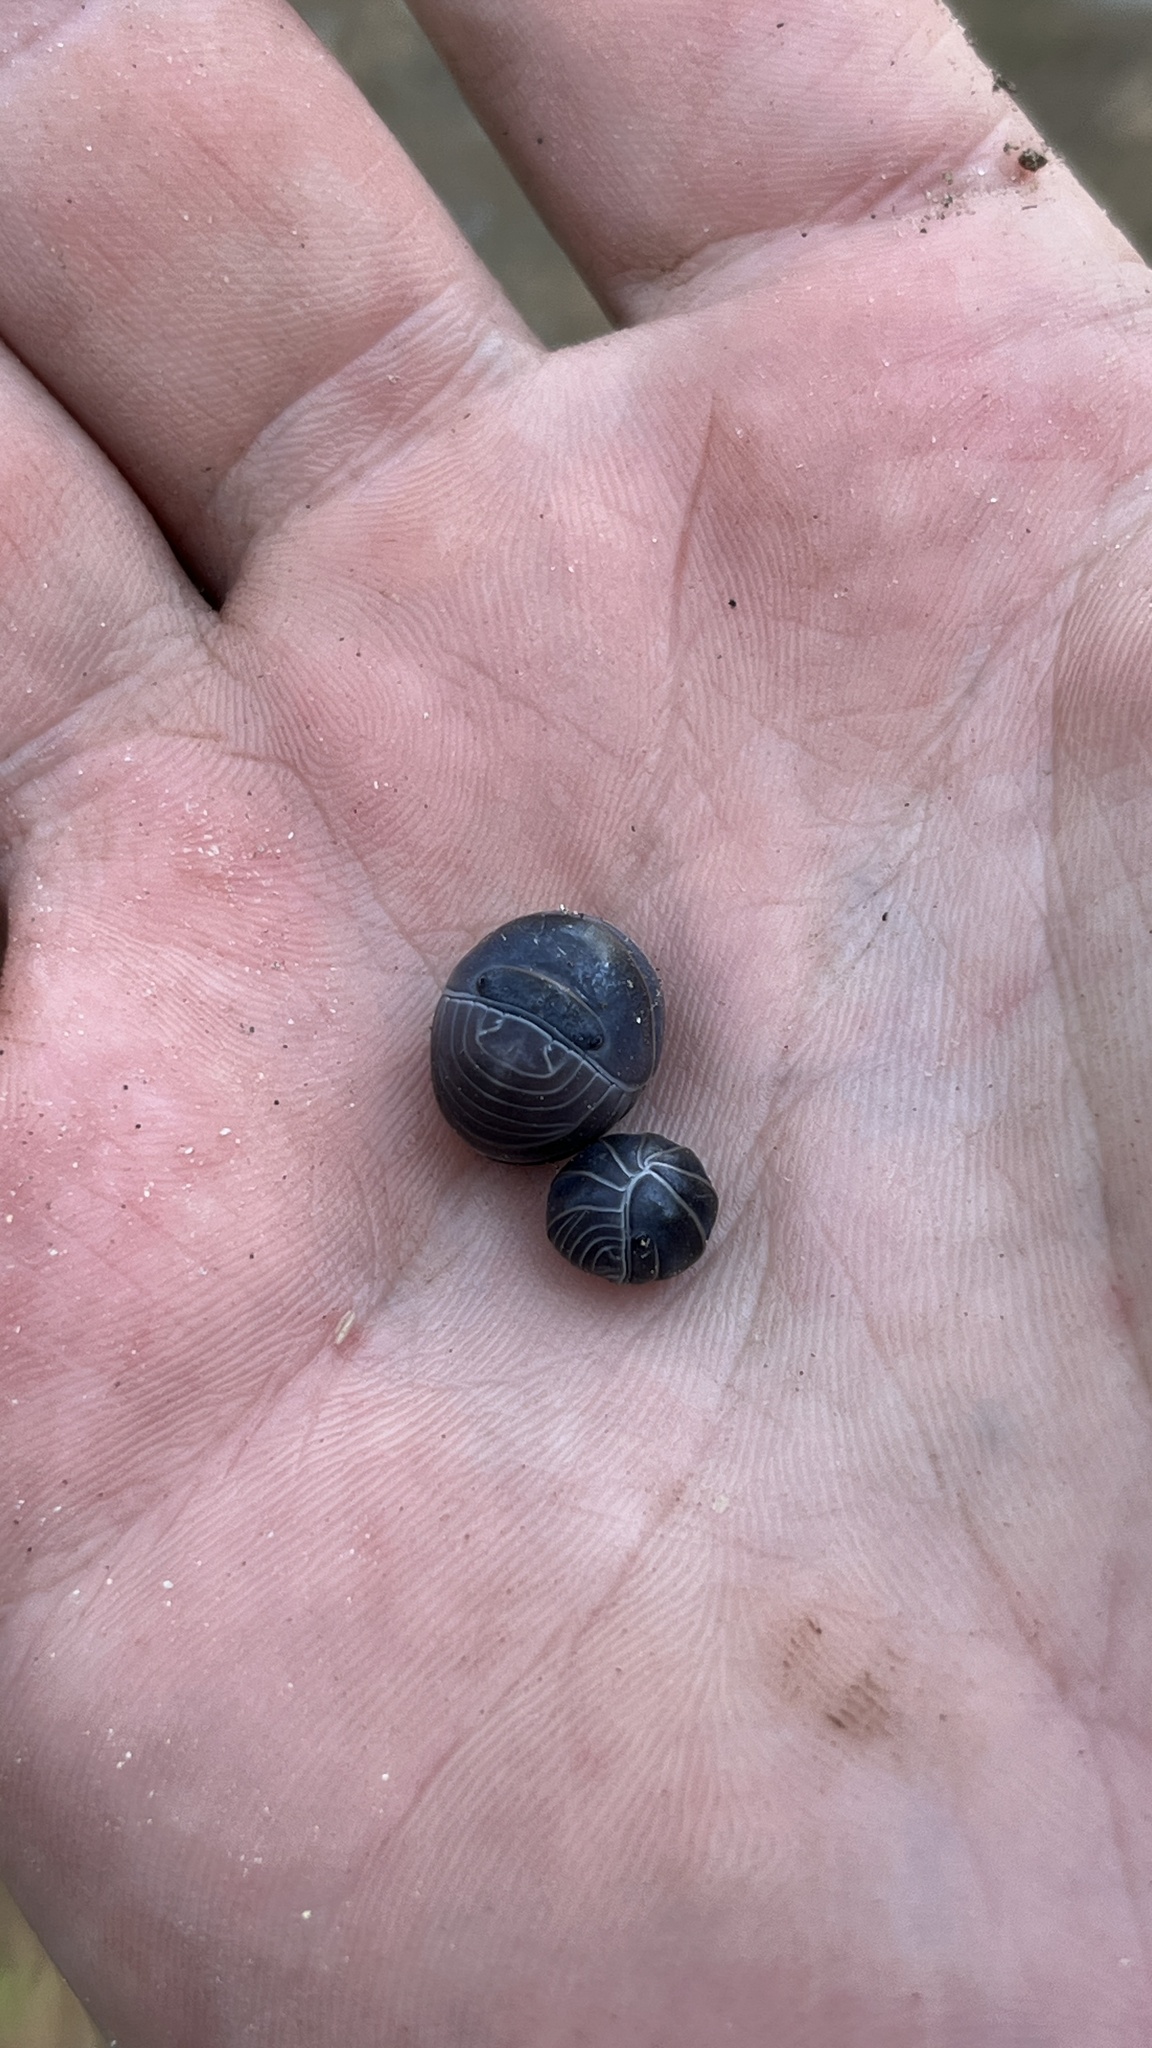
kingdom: Animalia
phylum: Arthropoda
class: Malacostraca
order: Isopoda
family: Armadillidae
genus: Armadillo
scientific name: Armadillo officinalis
